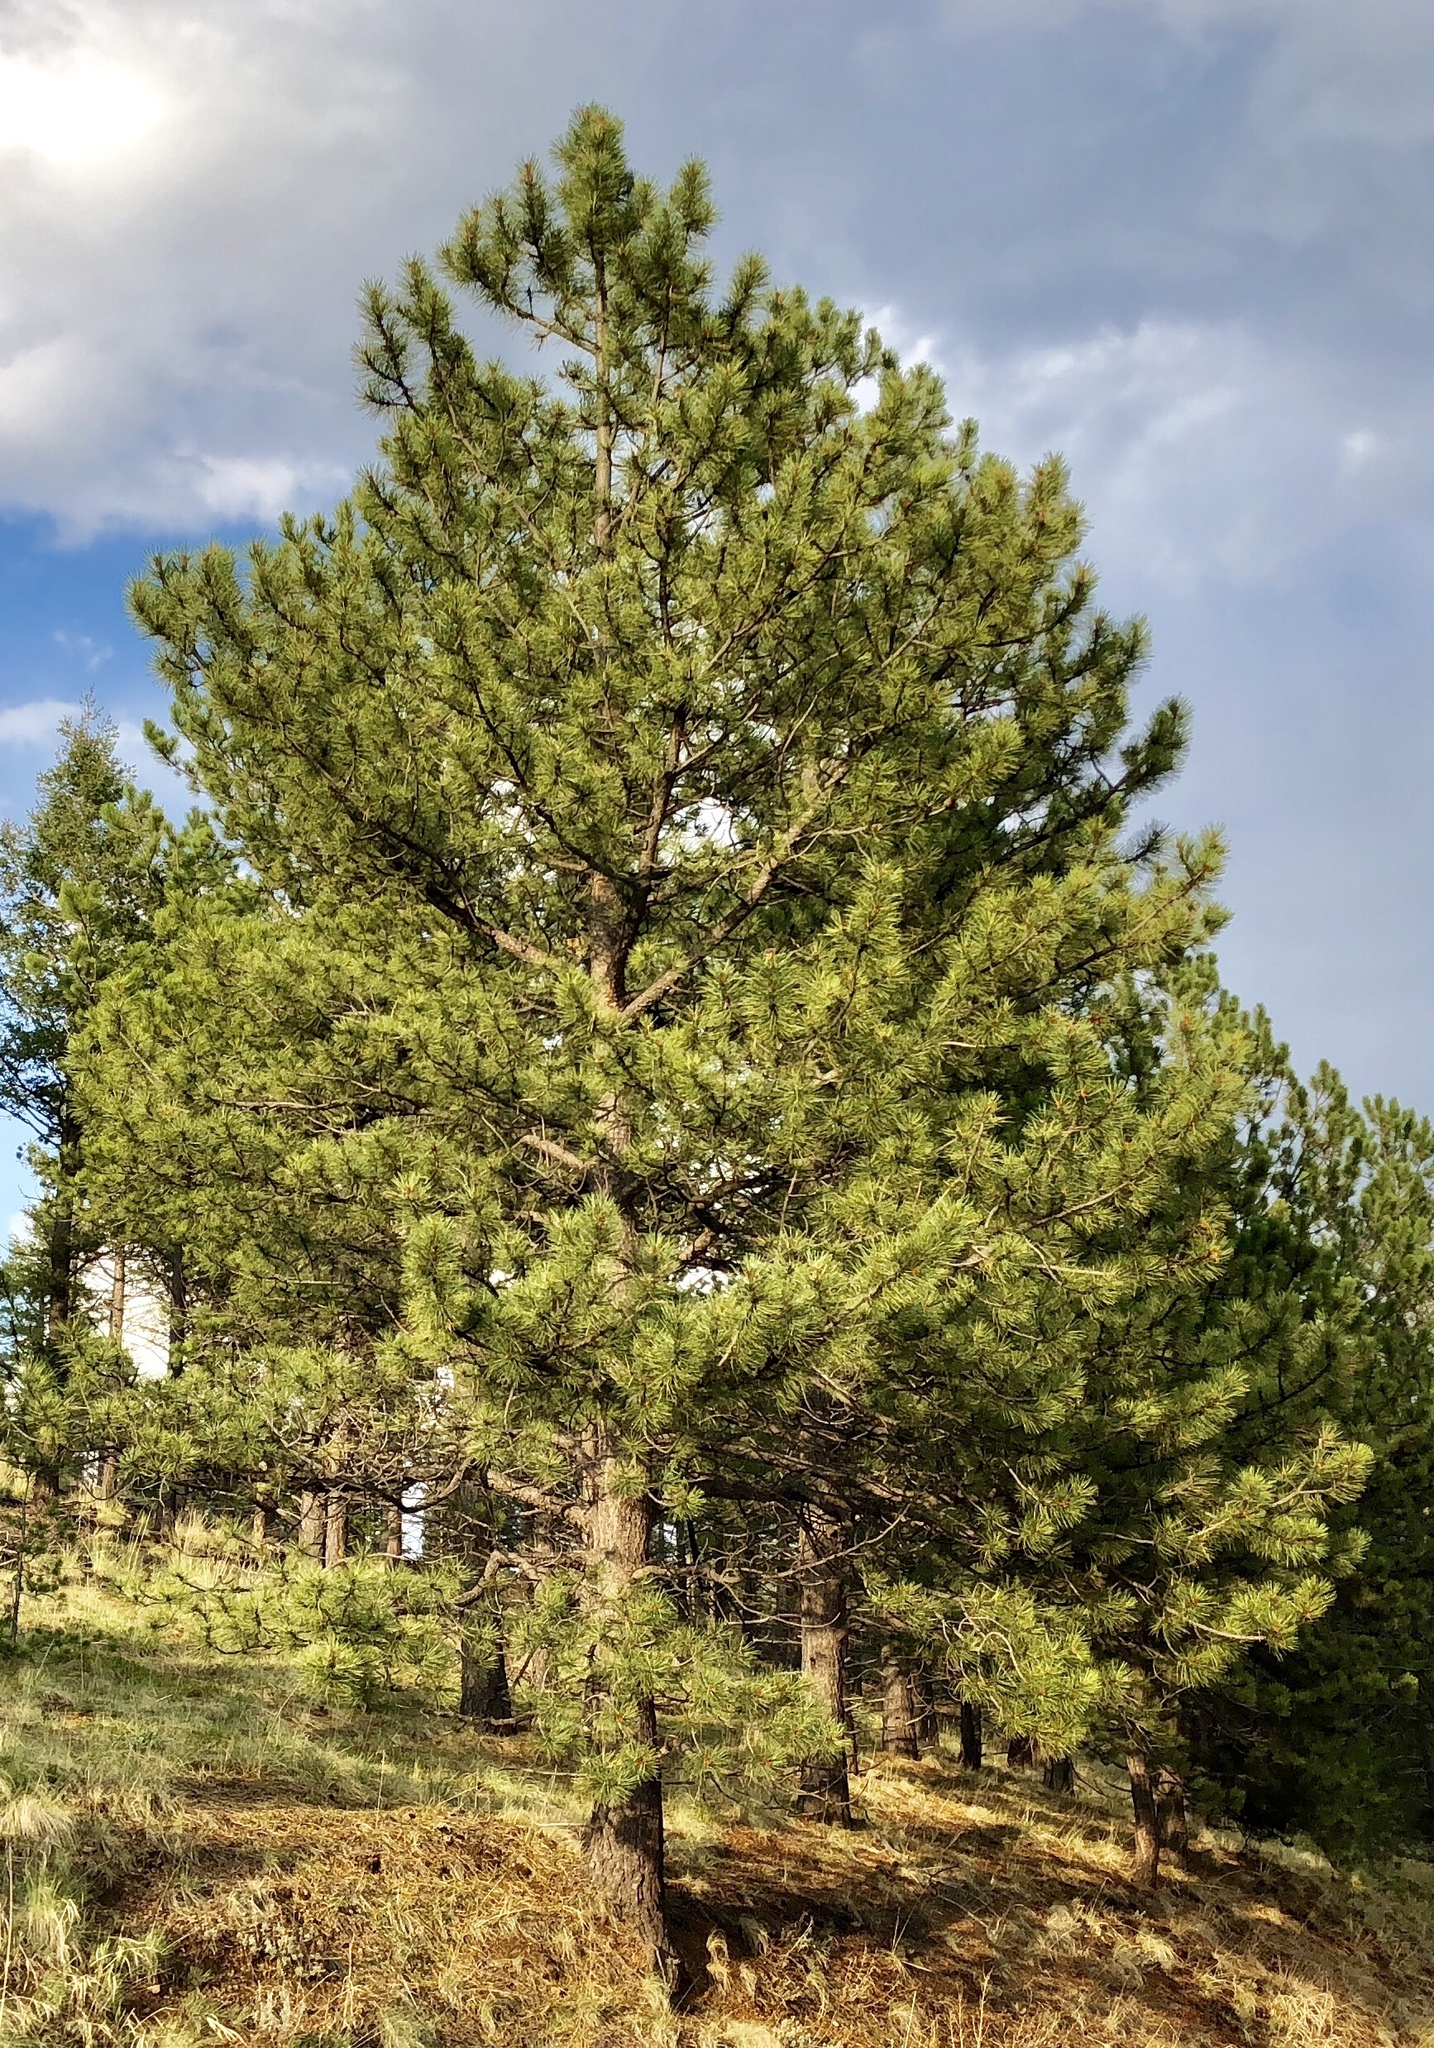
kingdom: Plantae
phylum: Tracheophyta
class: Pinopsida
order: Pinales
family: Pinaceae
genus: Pinus
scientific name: Pinus ponderosa
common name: Western yellow-pine
